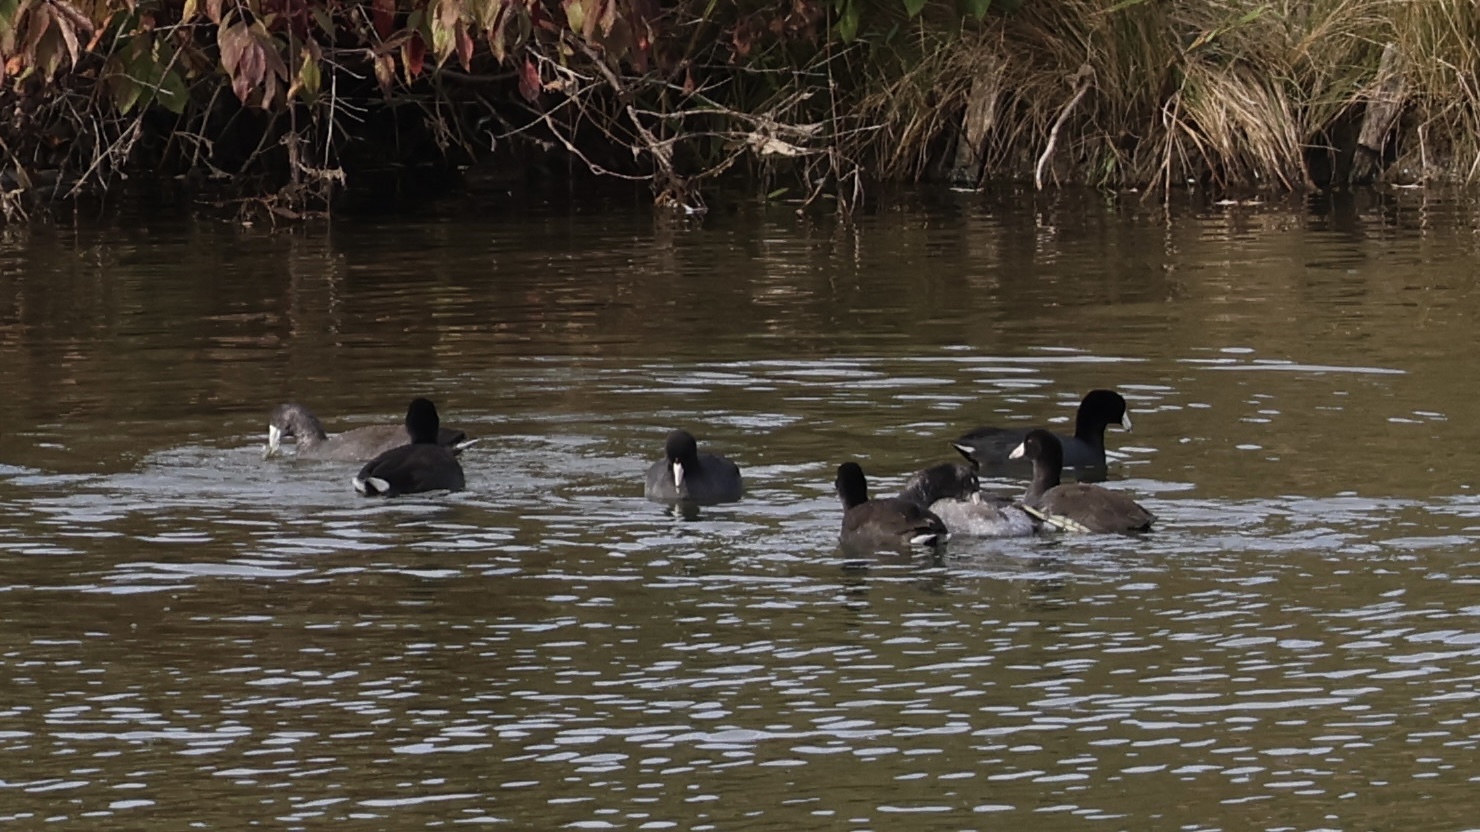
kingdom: Animalia
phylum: Chordata
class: Aves
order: Gruiformes
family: Rallidae
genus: Fulica
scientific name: Fulica americana
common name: American coot
